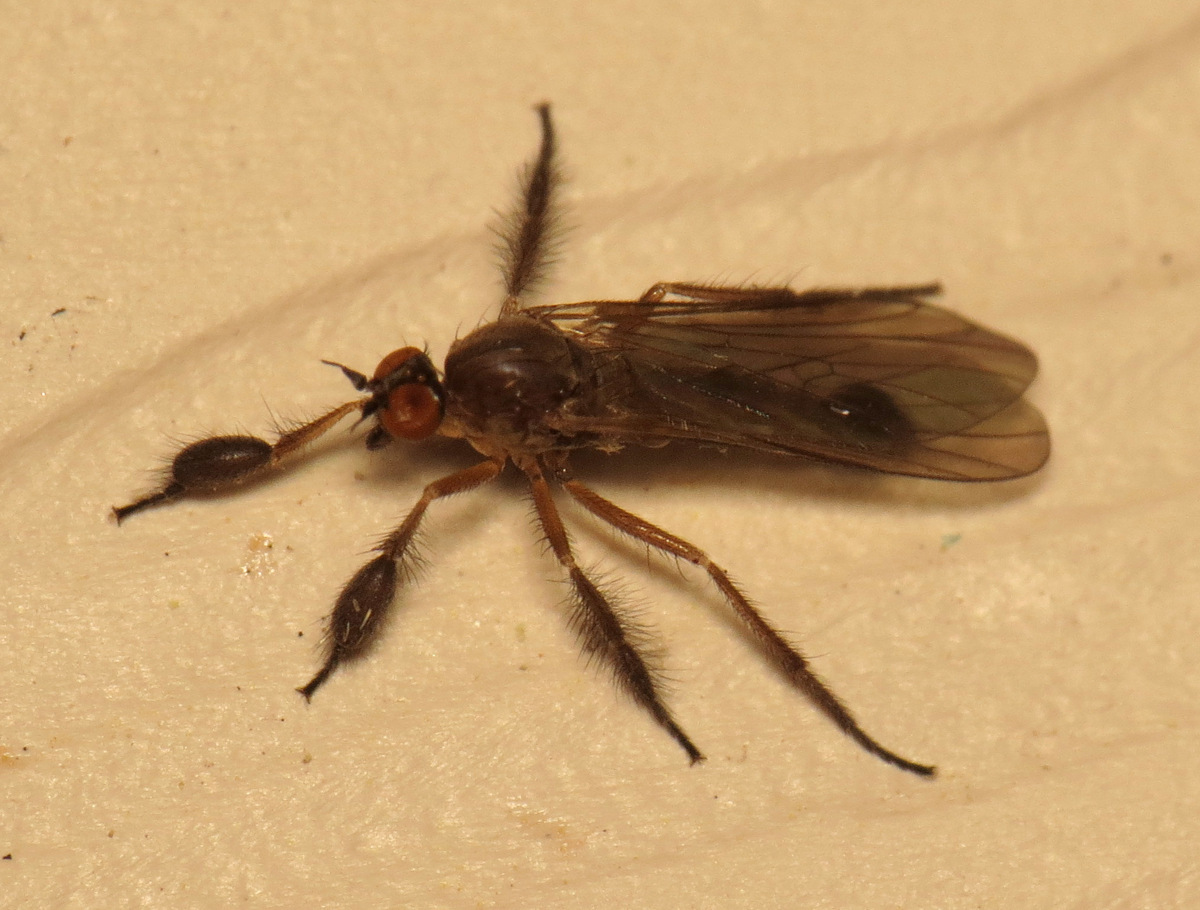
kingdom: Animalia
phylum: Arthropoda
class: Insecta
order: Diptera
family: Empididae
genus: Hilara
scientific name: Hilara seriata
